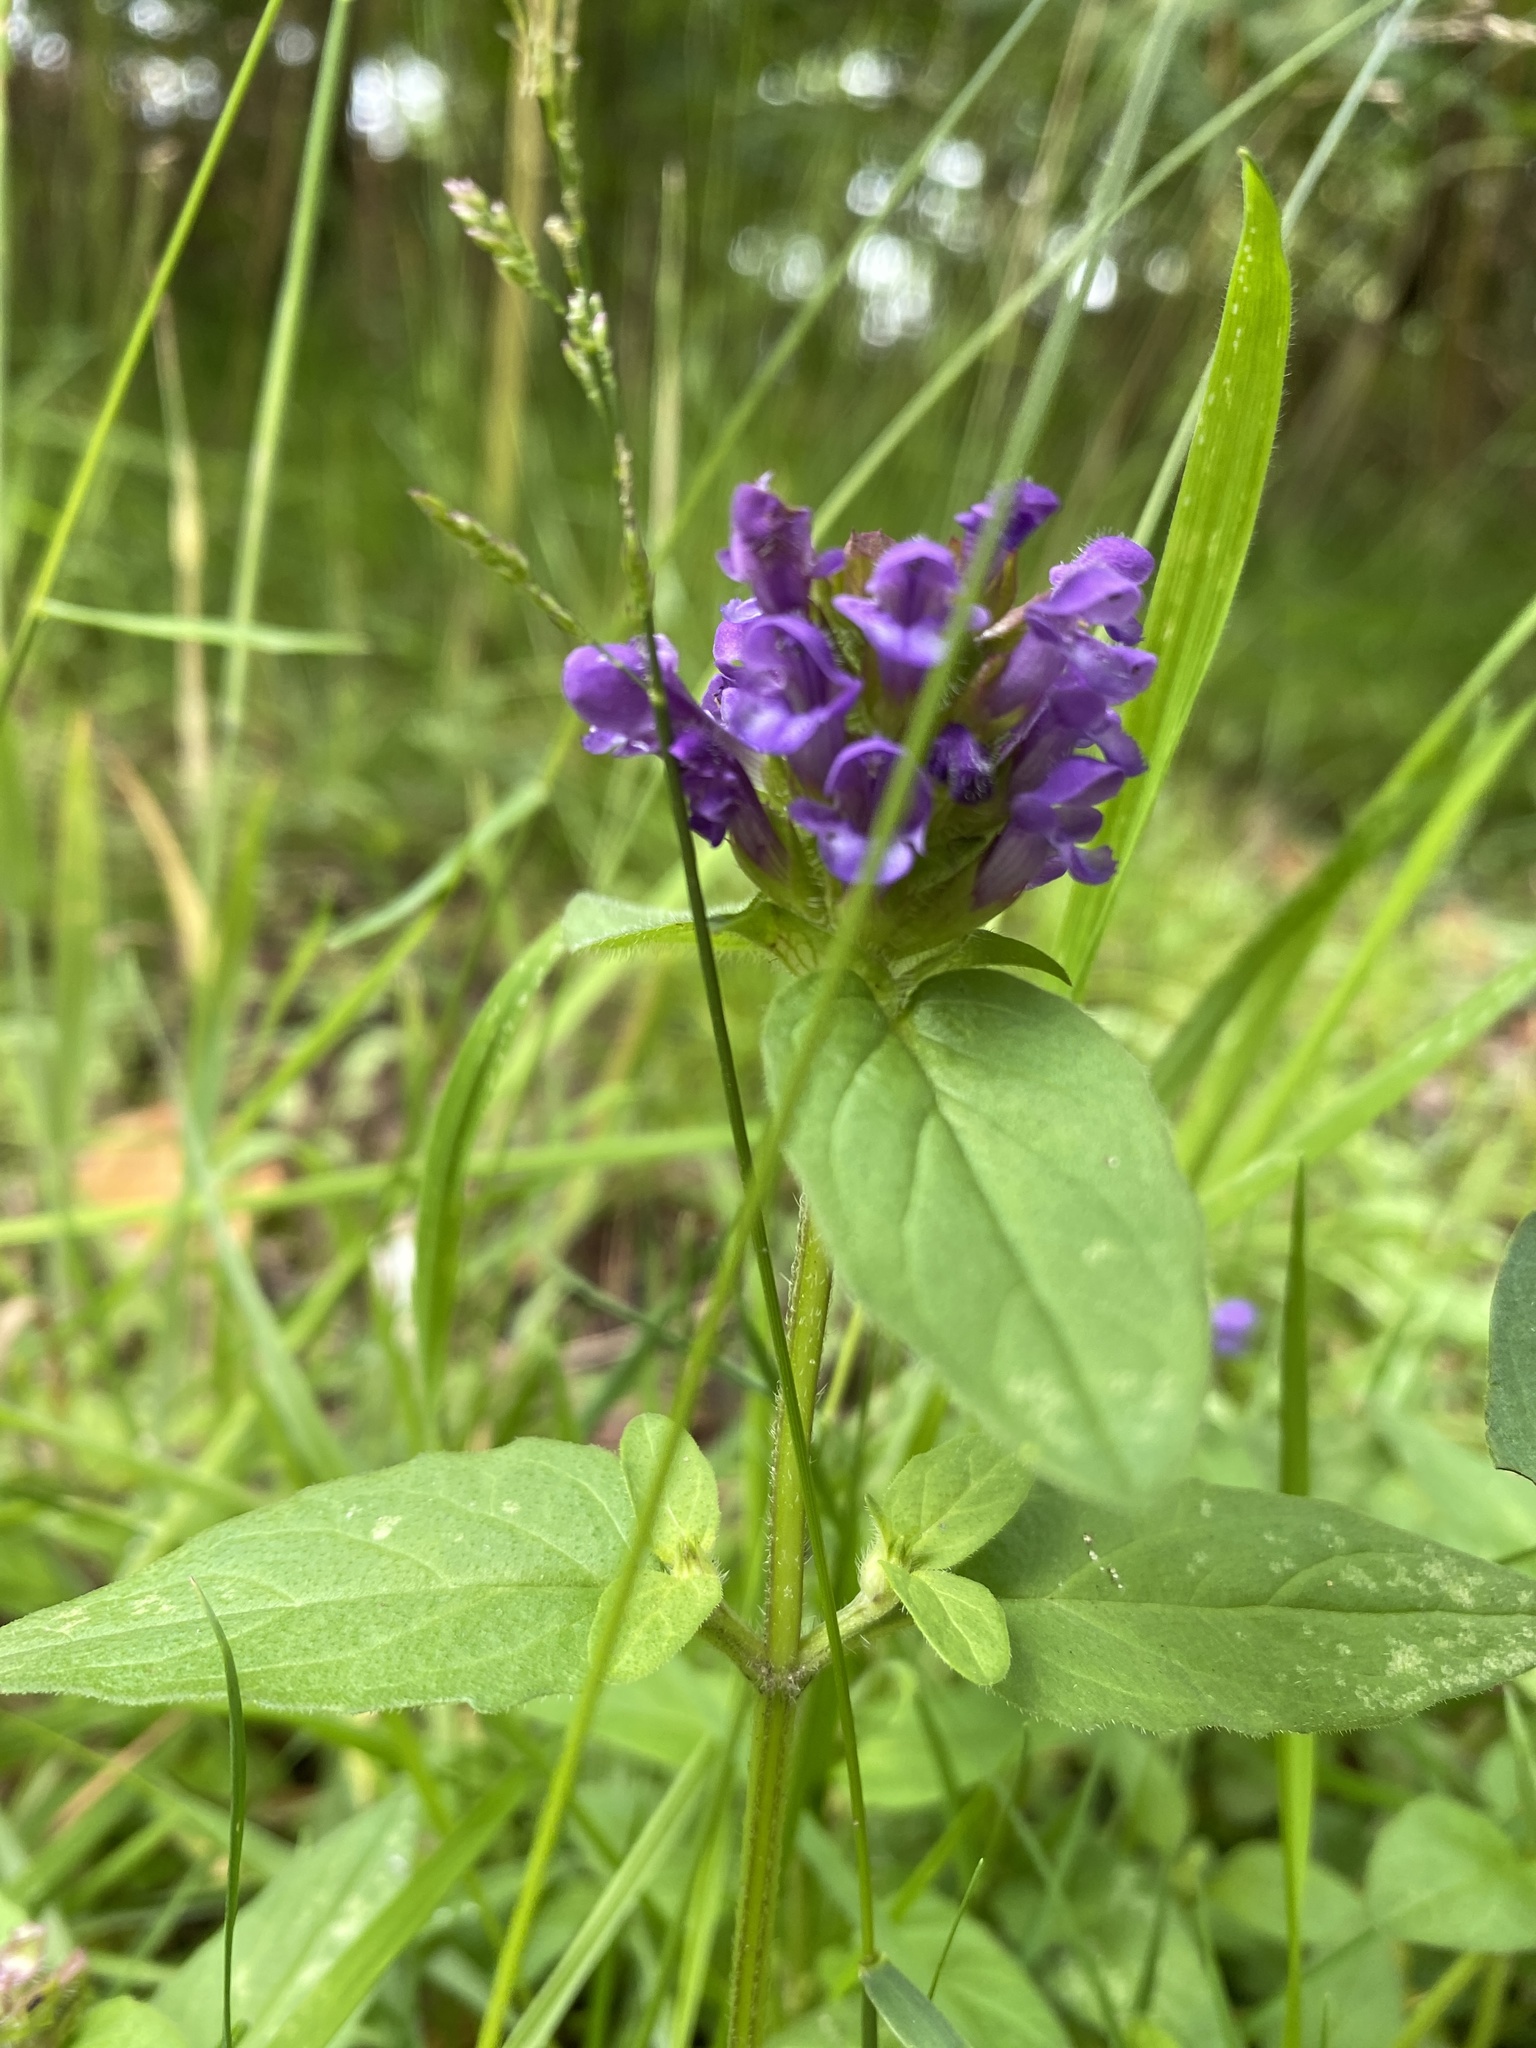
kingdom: Plantae
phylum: Tracheophyta
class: Magnoliopsida
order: Lamiales
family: Lamiaceae
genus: Prunella
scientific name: Prunella vulgaris
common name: Heal-all
